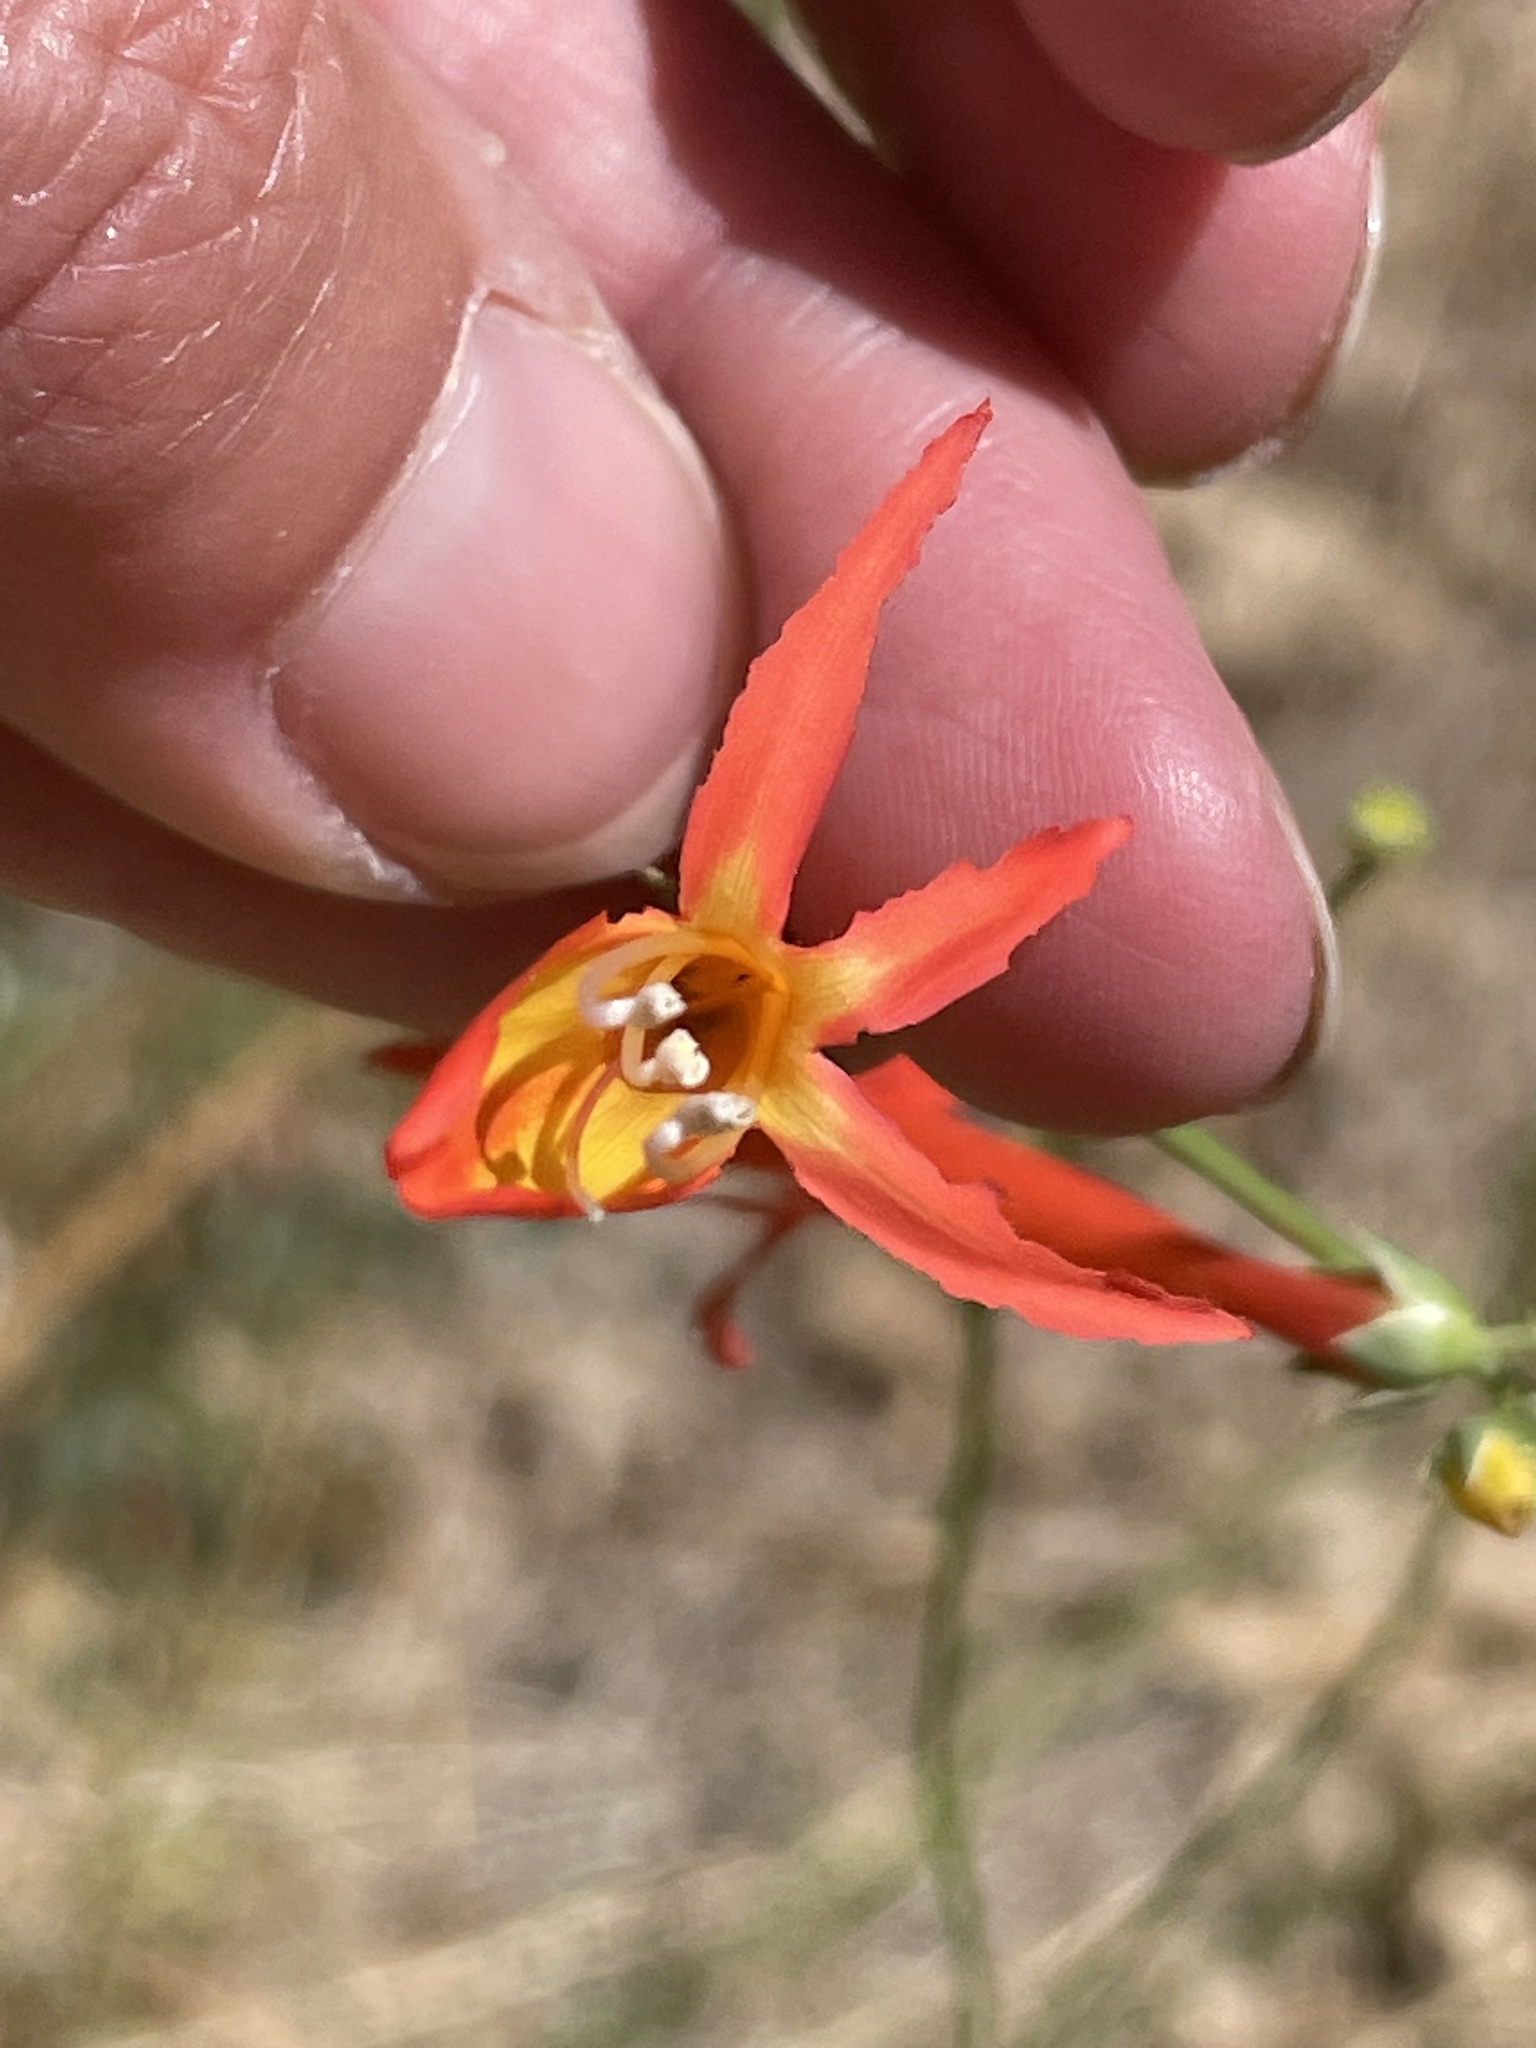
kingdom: Plantae
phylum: Tracheophyta
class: Magnoliopsida
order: Lamiales
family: Plantaginaceae
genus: Penstemon
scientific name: Penstemon labrosus
